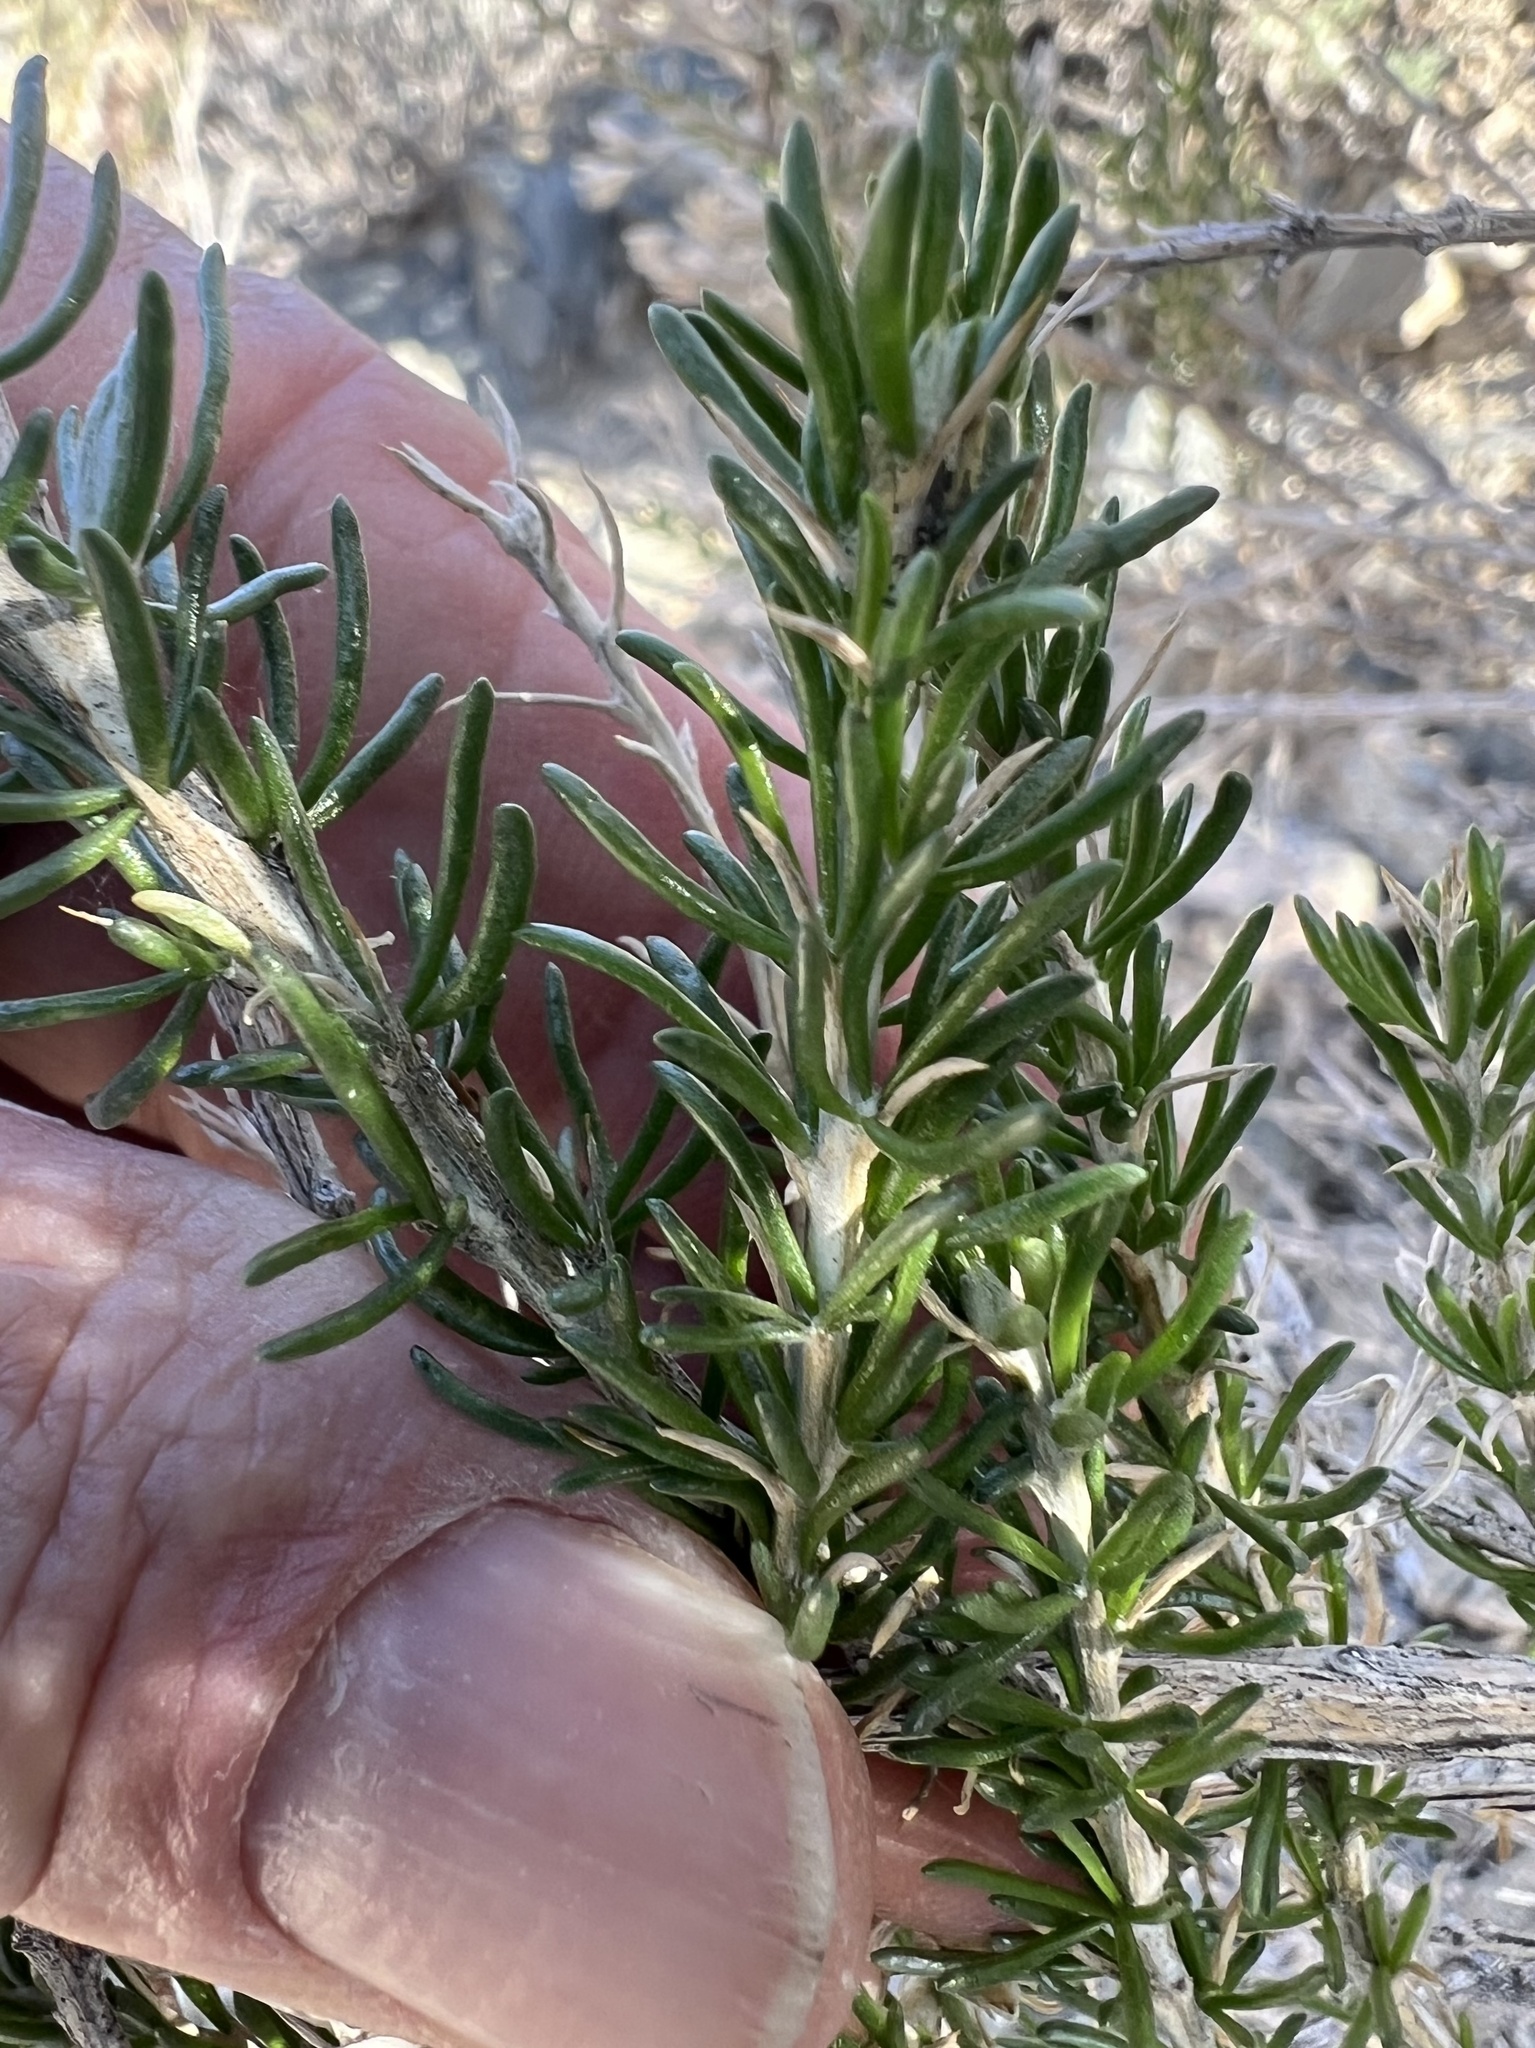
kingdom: Plantae
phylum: Tracheophyta
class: Magnoliopsida
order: Asterales
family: Asteraceae
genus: Tetradymia
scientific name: Tetradymia glabrata
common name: Smooth tetradymia
